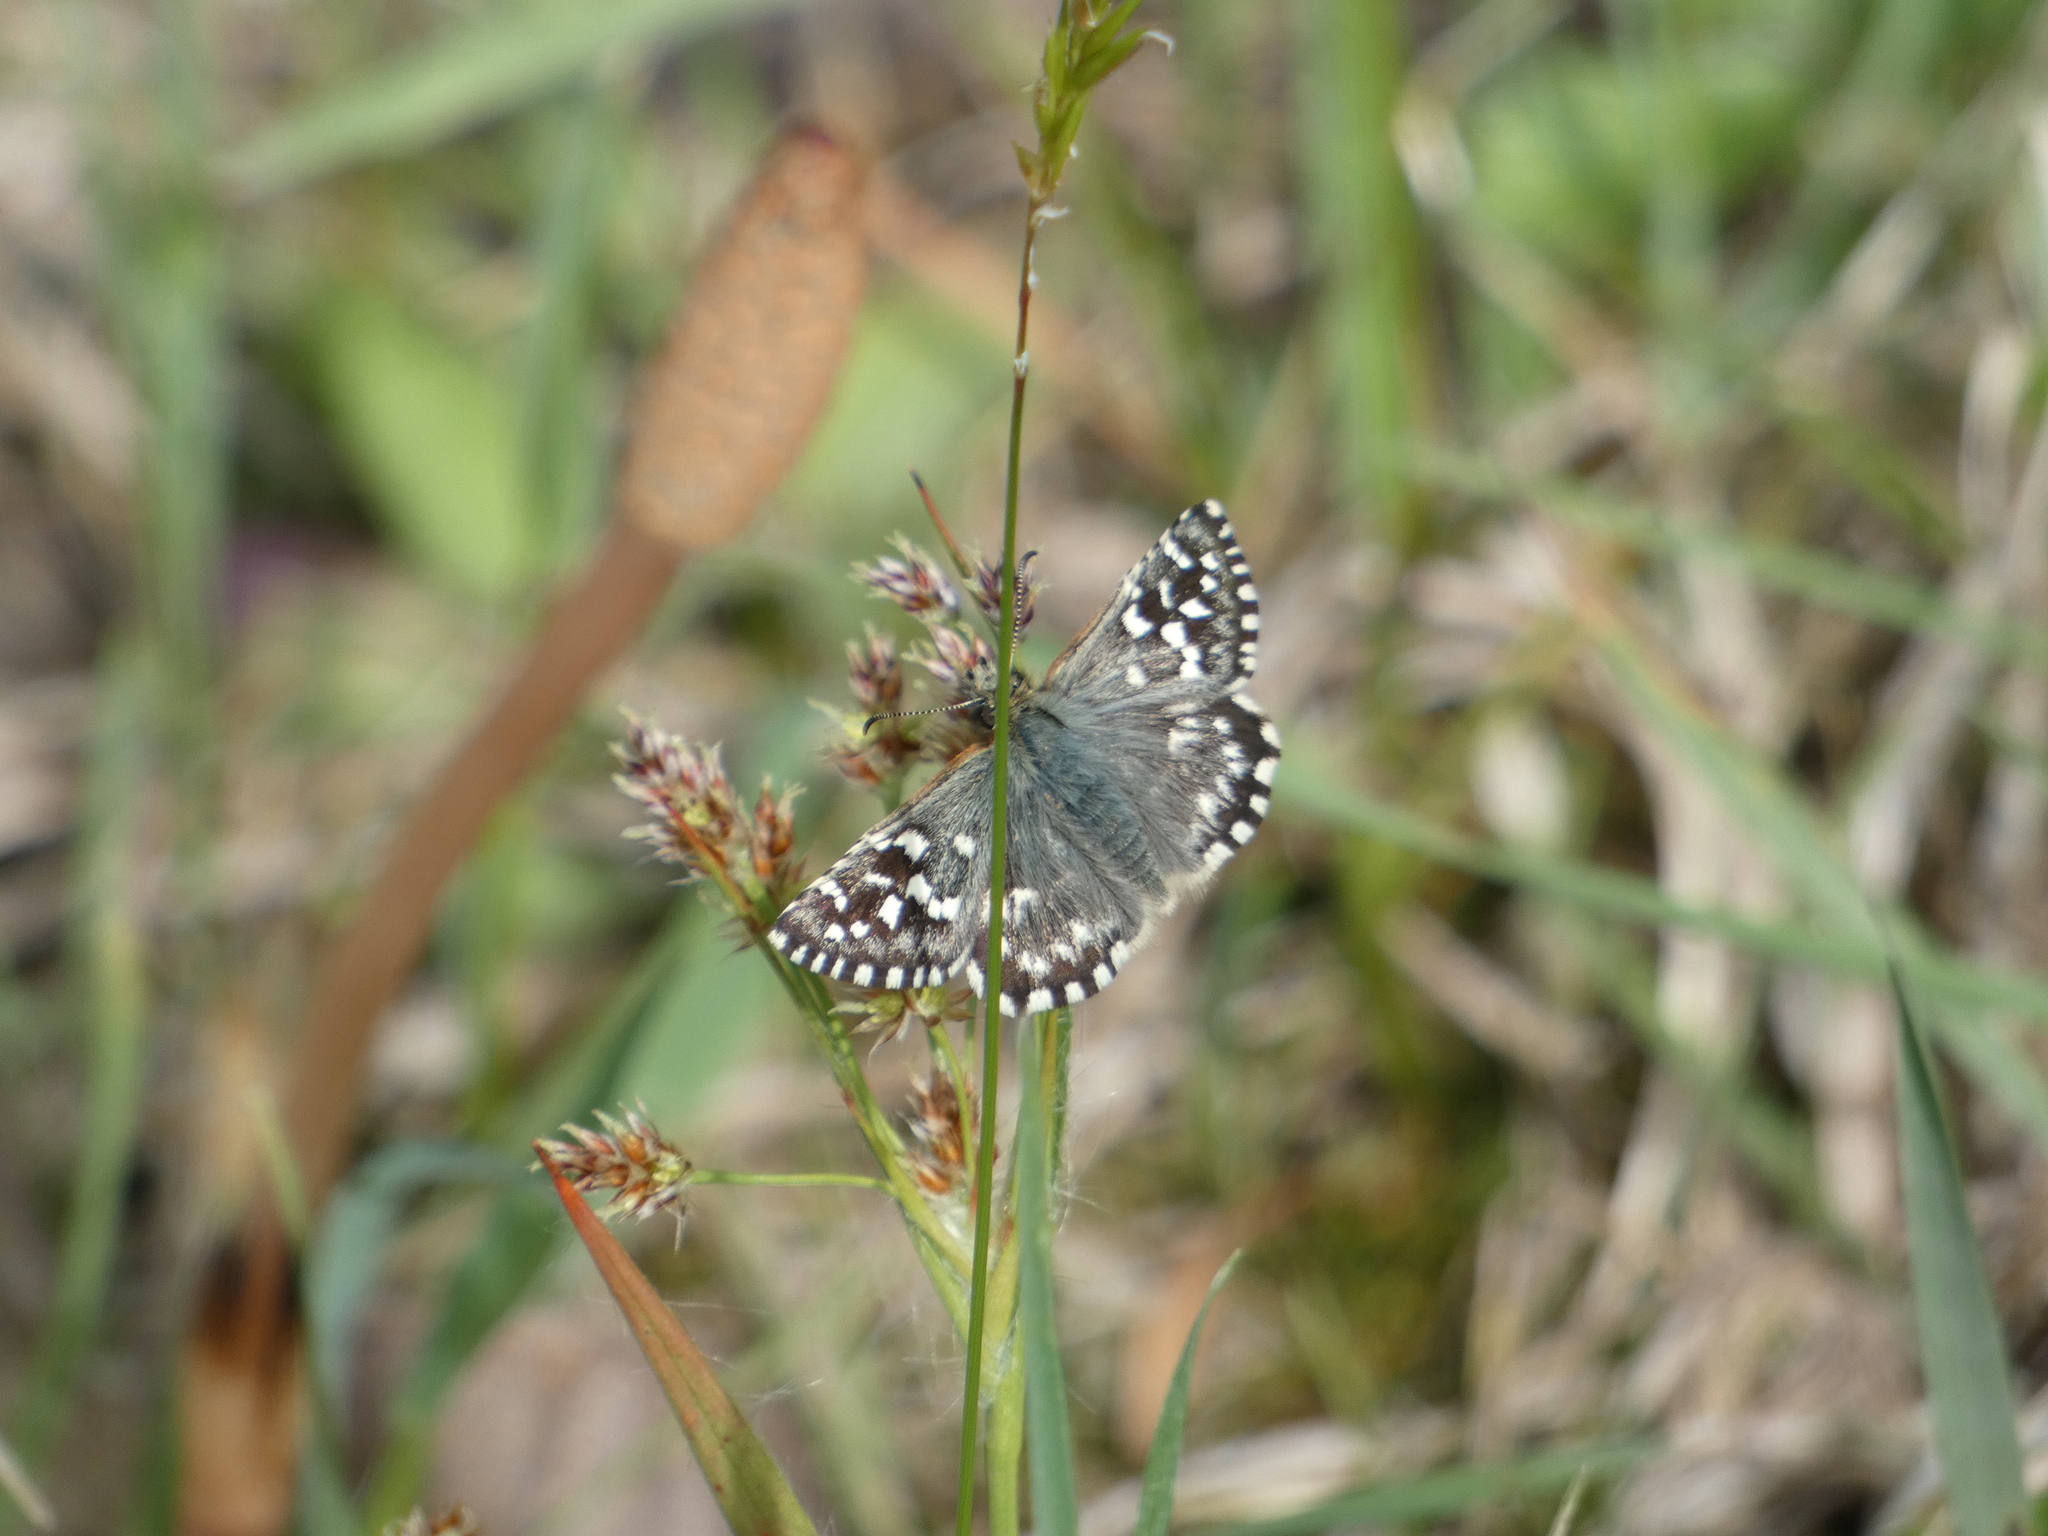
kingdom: Animalia
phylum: Arthropoda
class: Insecta
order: Lepidoptera
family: Hesperiidae
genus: Pyrgus
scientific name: Pyrgus malvoides
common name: Southern grizzled skipper
